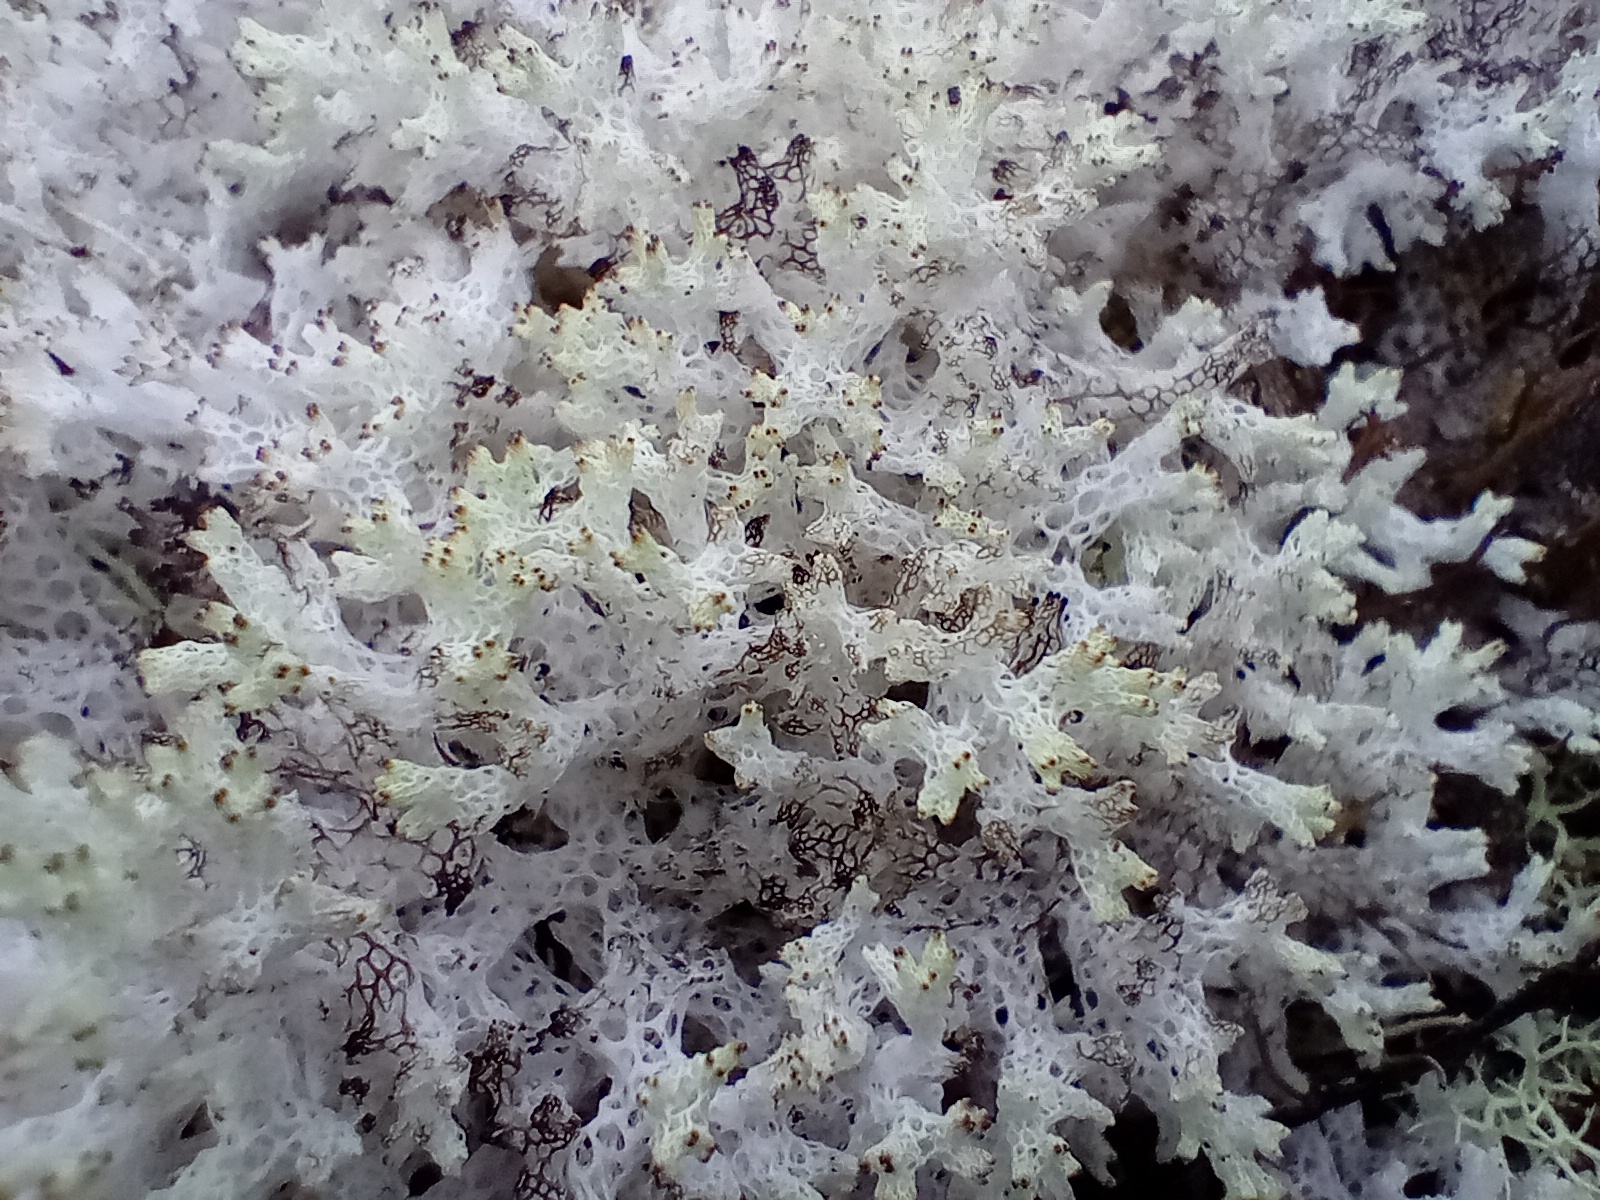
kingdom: Fungi
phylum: Ascomycota
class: Lecanoromycetes
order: Lecanorales
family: Cladoniaceae
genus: Pulchrocladia
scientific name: Pulchrocladia retipora
